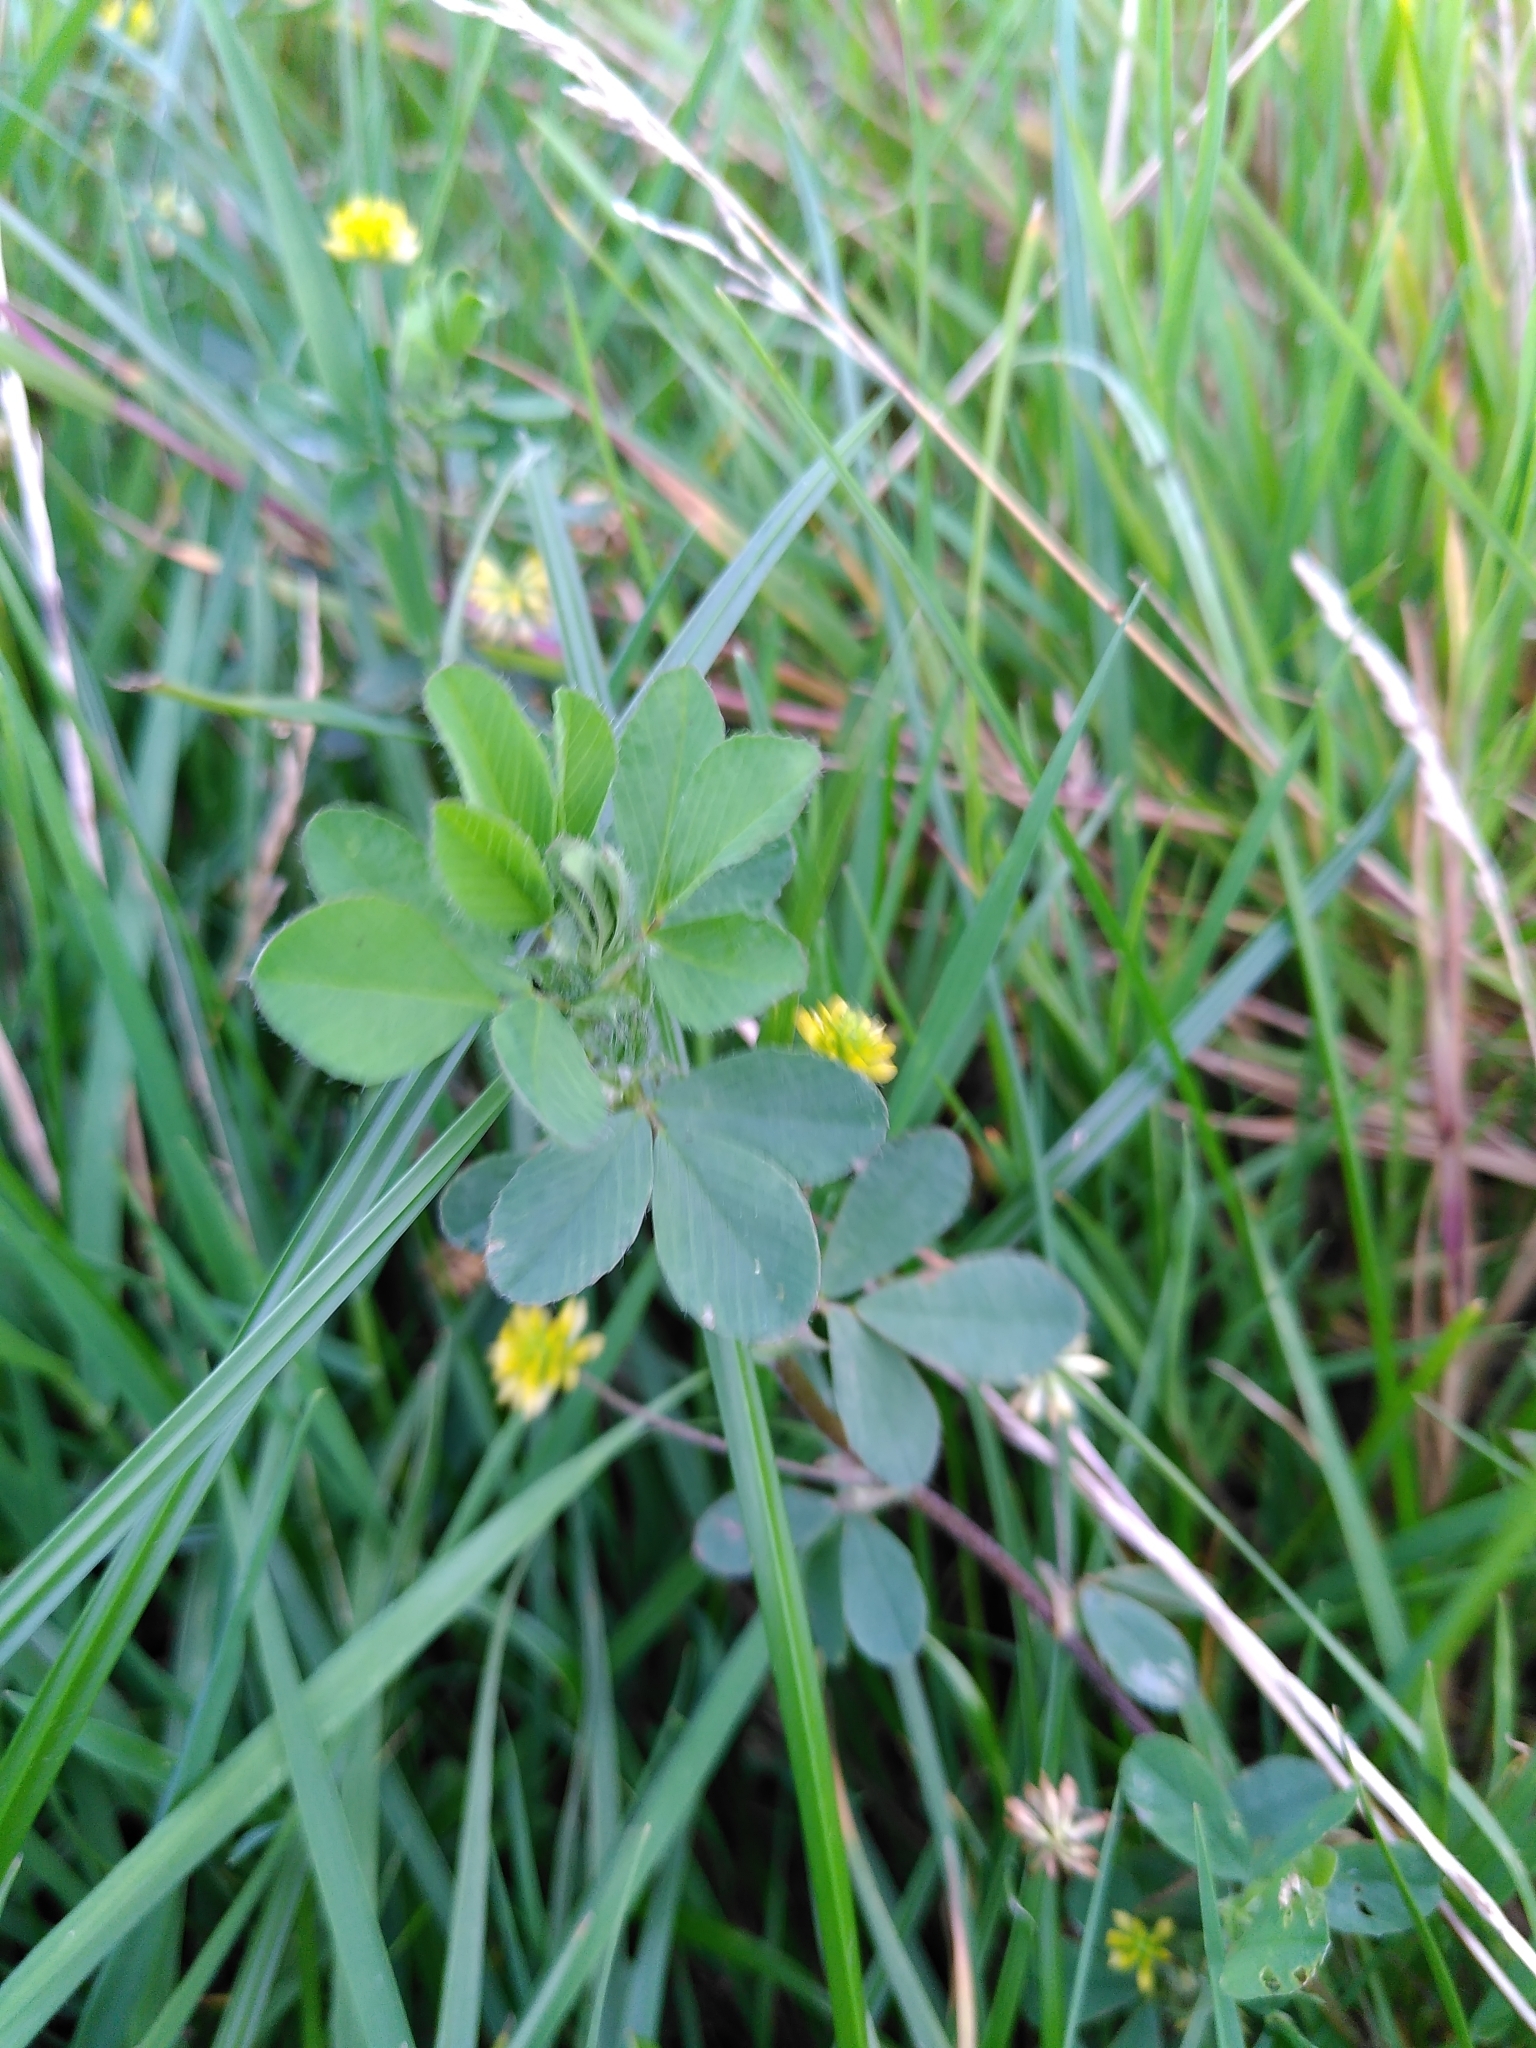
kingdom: Plantae
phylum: Tracheophyta
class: Magnoliopsida
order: Fabales
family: Fabaceae
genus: Trifolium
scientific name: Trifolium dubium
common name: Suckling clover
